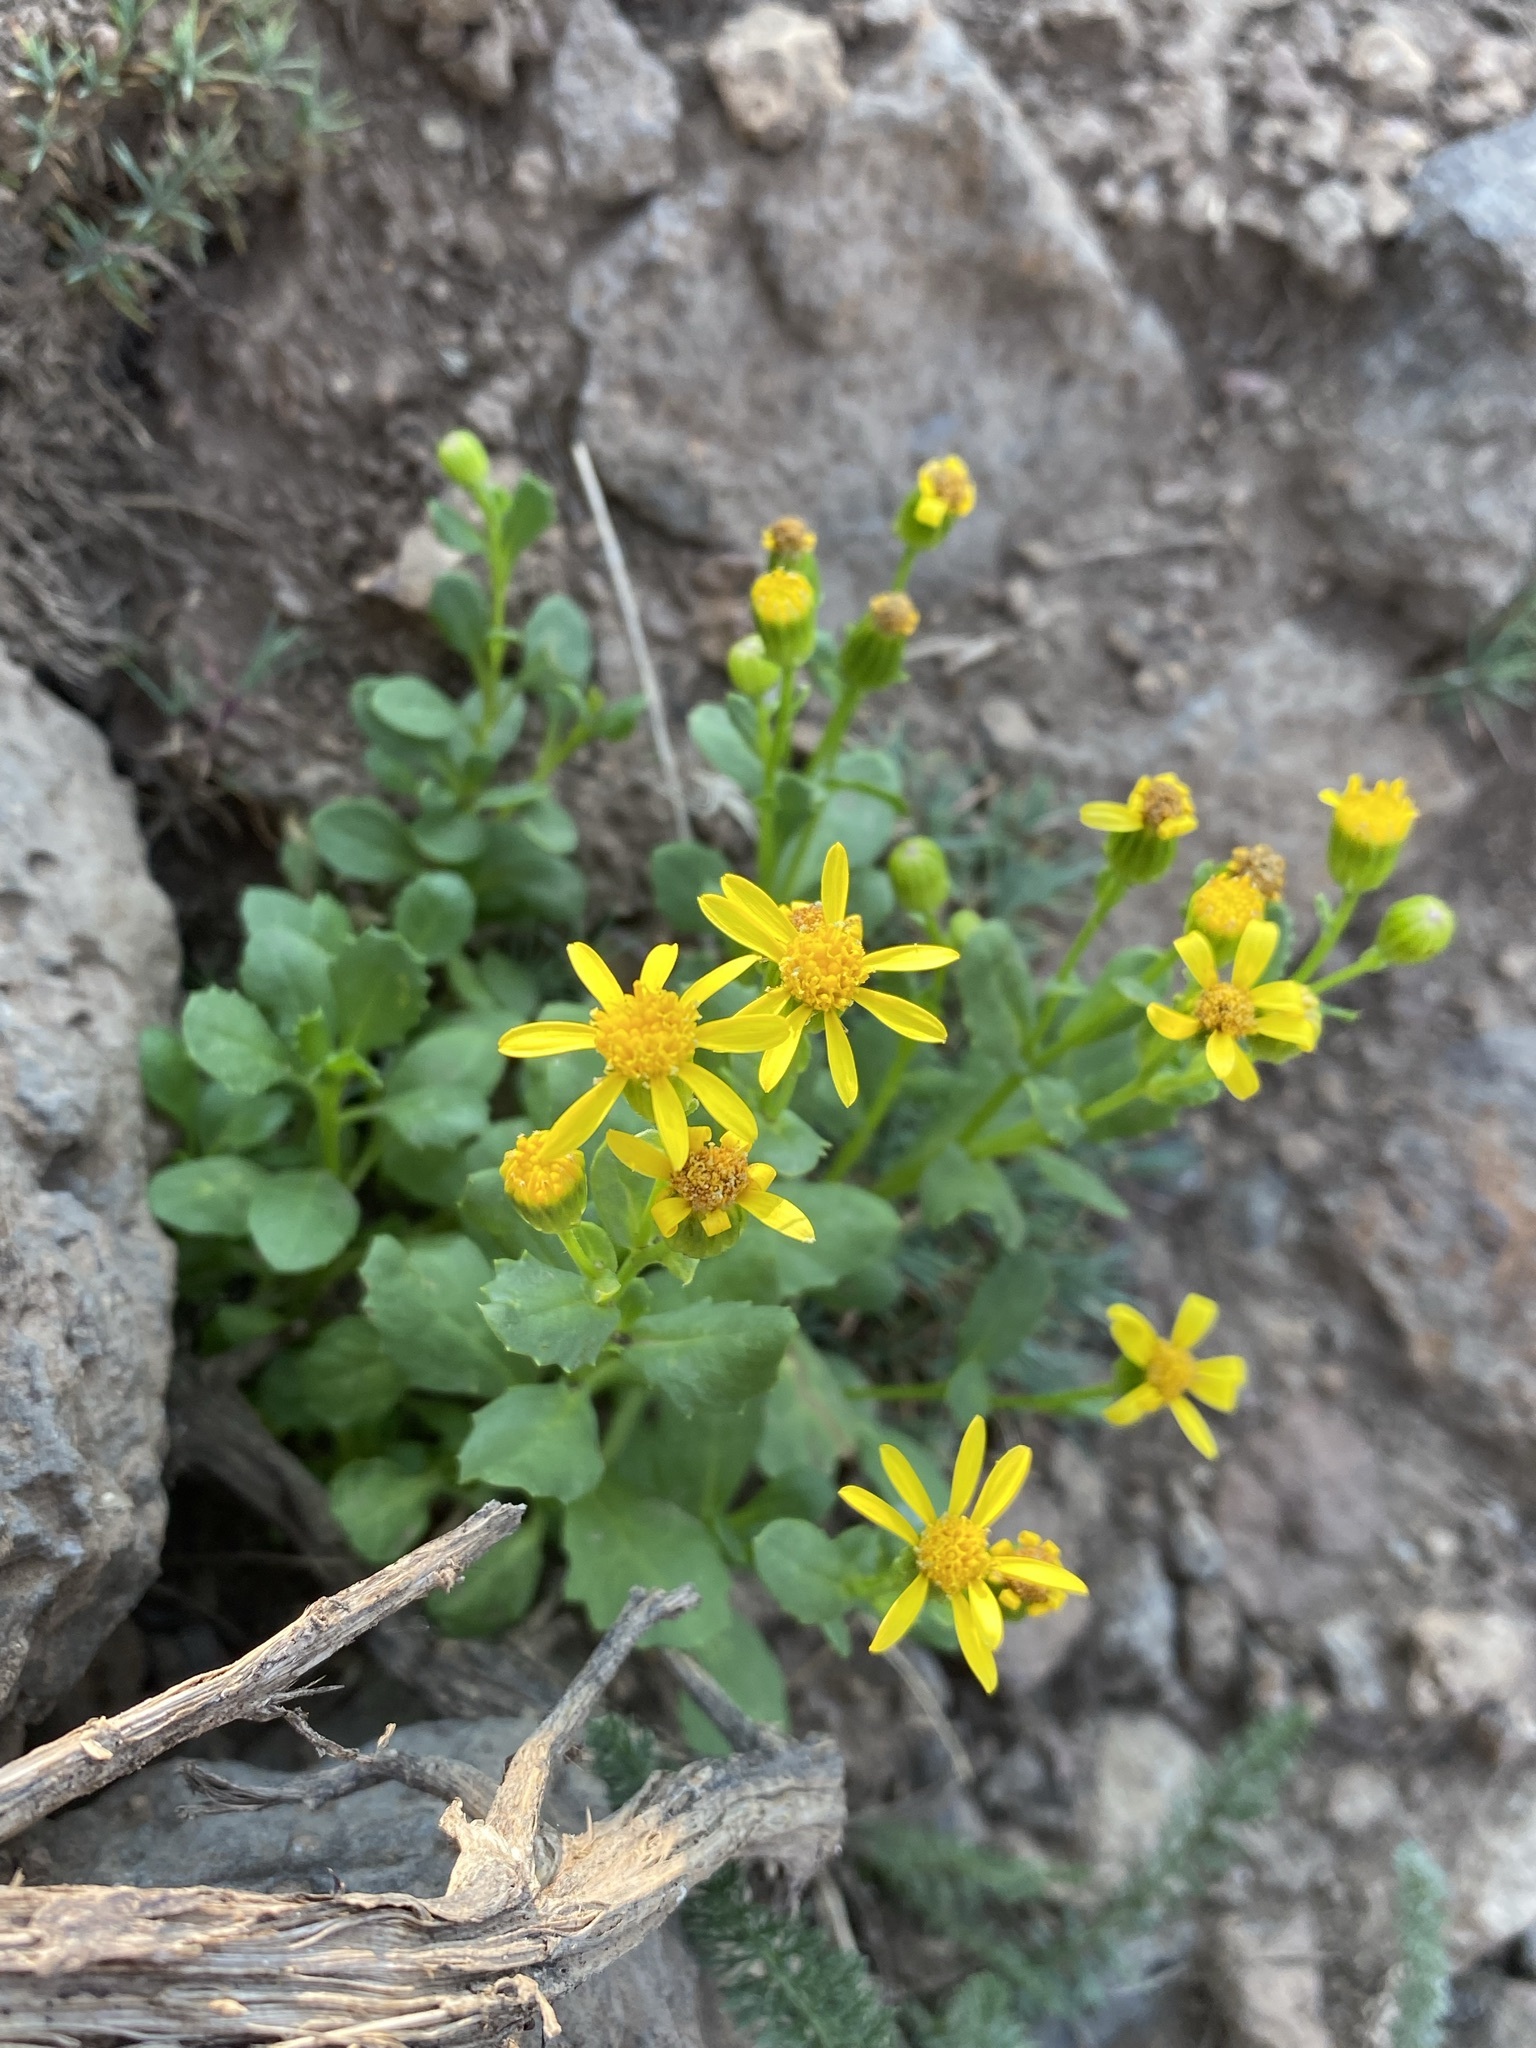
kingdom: Plantae
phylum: Tracheophyta
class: Magnoliopsida
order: Asterales
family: Asteraceae
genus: Senecio
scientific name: Senecio fremontii
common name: Fremont's groundsel
